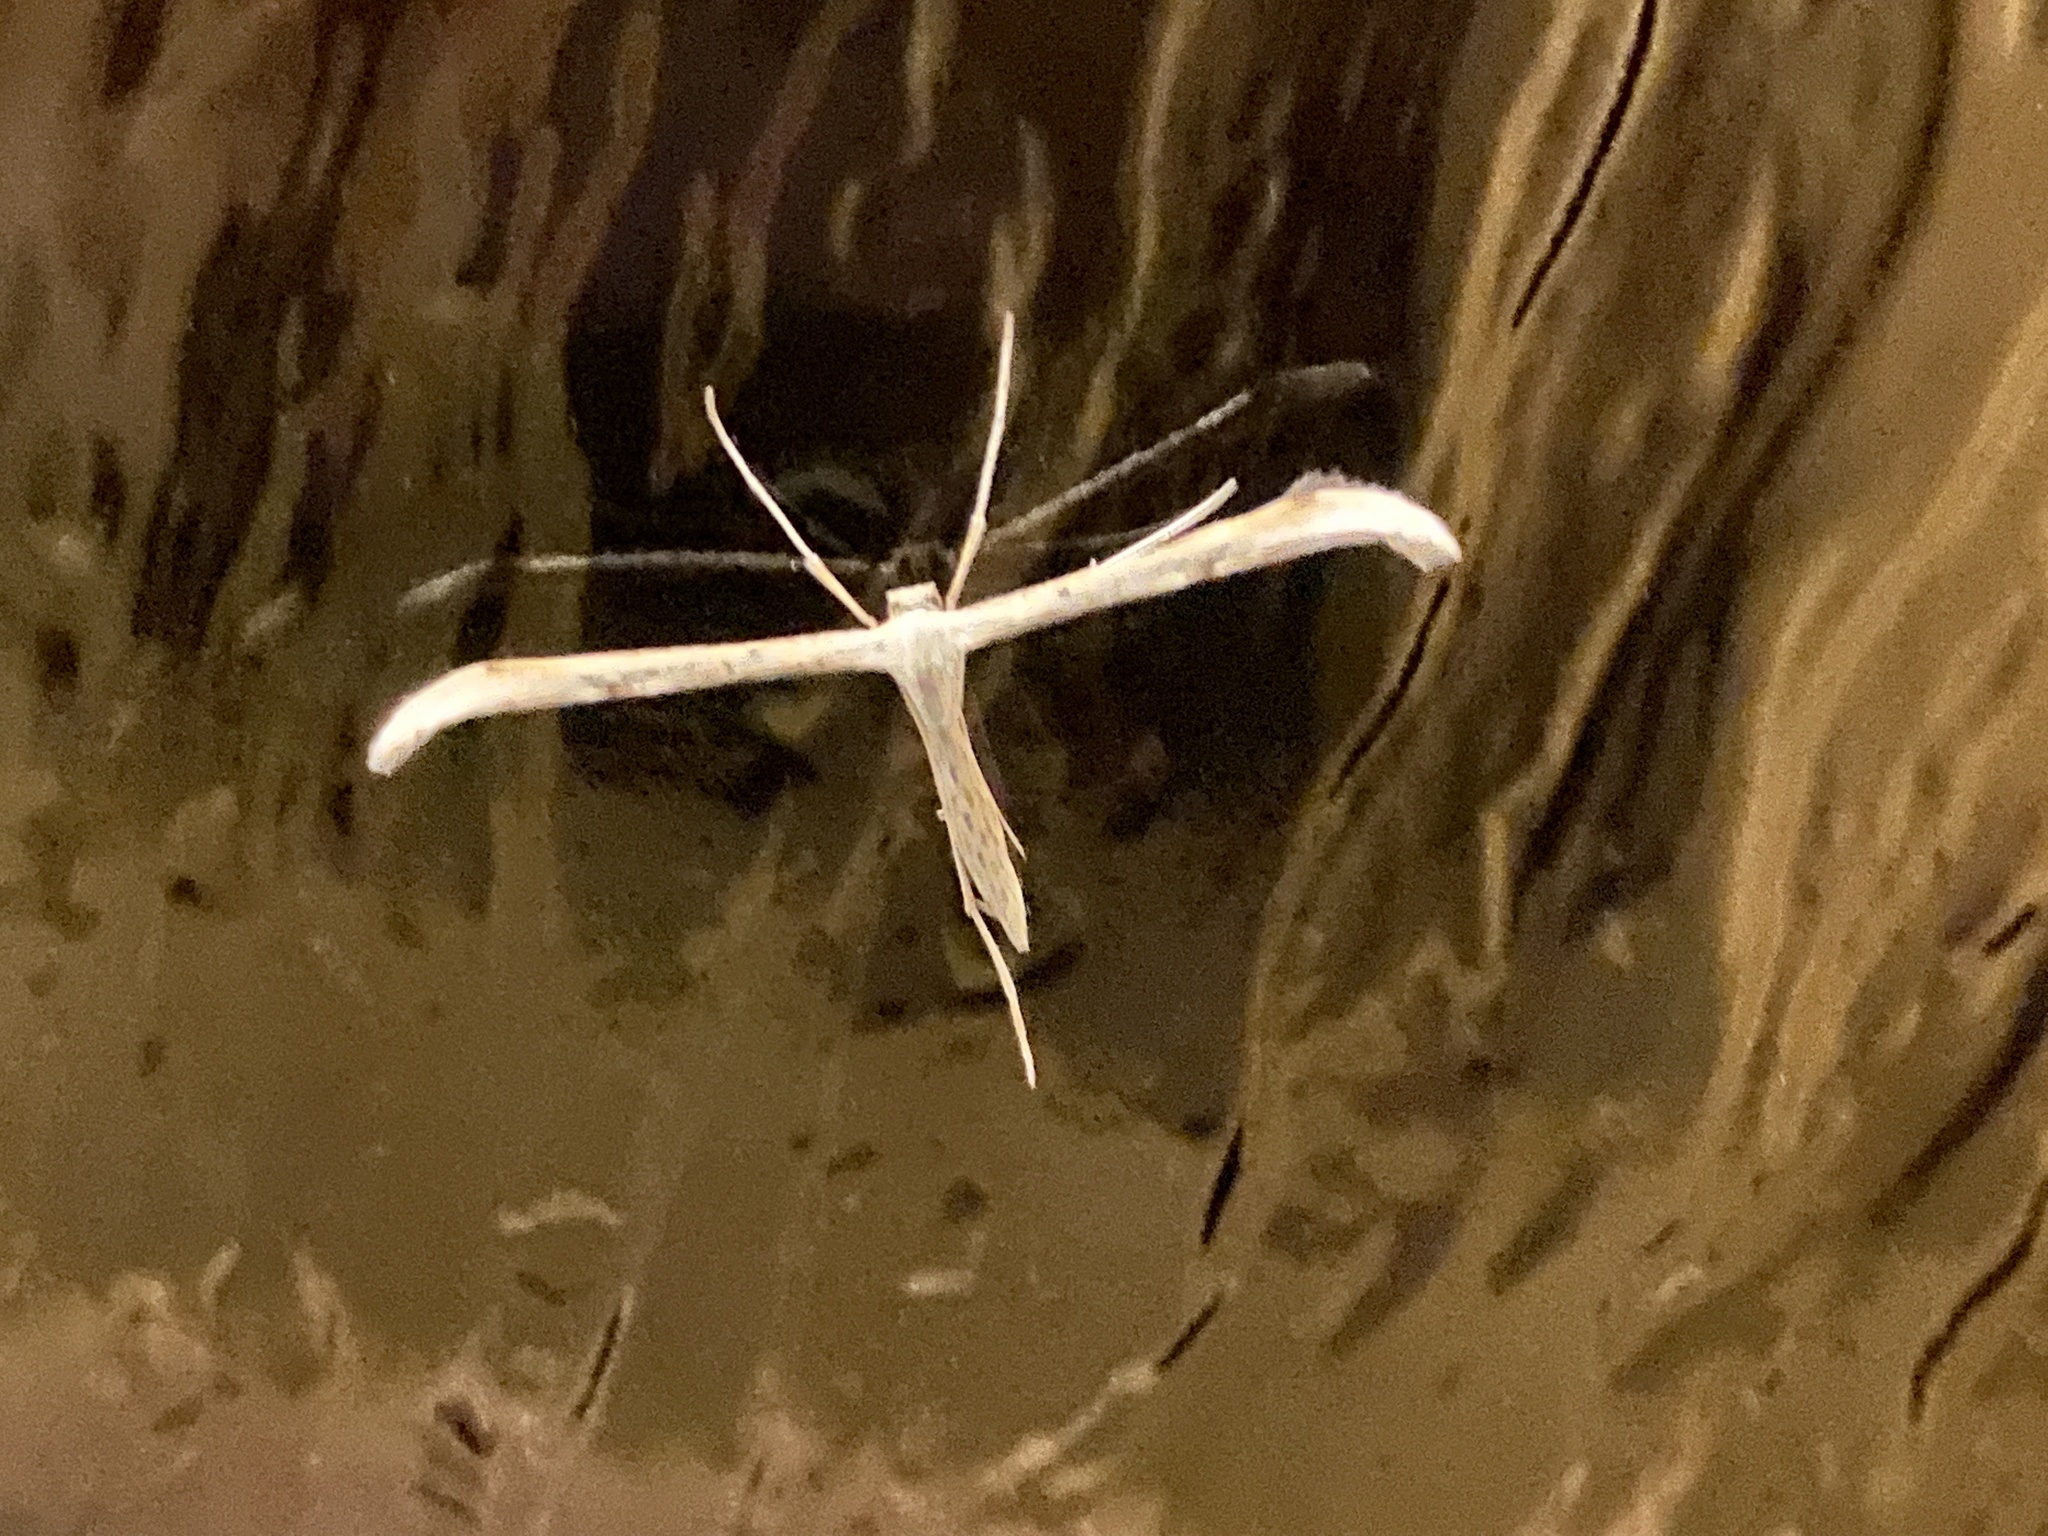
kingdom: Animalia
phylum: Arthropoda
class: Insecta
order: Lepidoptera
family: Pterophoridae
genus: Emmelina
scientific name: Emmelina monodactyla
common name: Common plume
